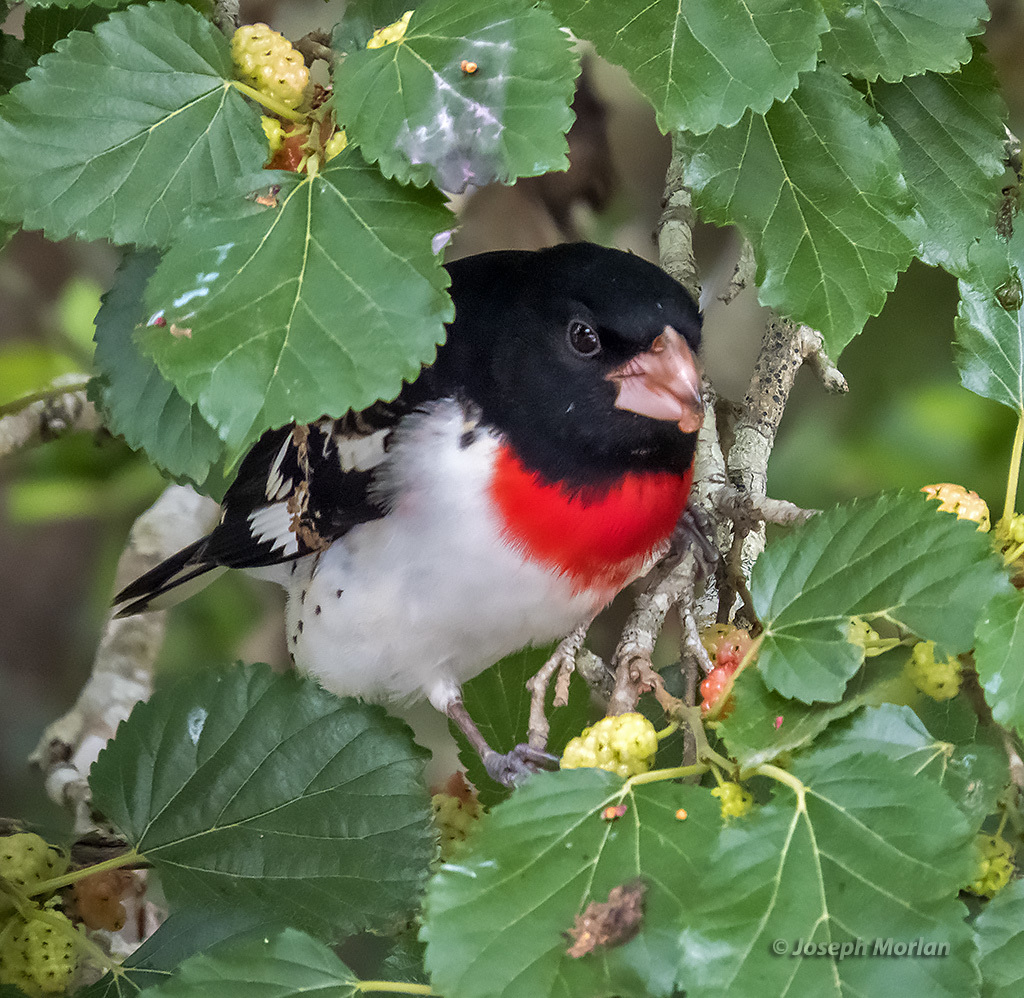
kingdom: Animalia
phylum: Chordata
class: Aves
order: Passeriformes
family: Cardinalidae
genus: Pheucticus
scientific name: Pheucticus ludovicianus
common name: Rose-breasted grosbeak
